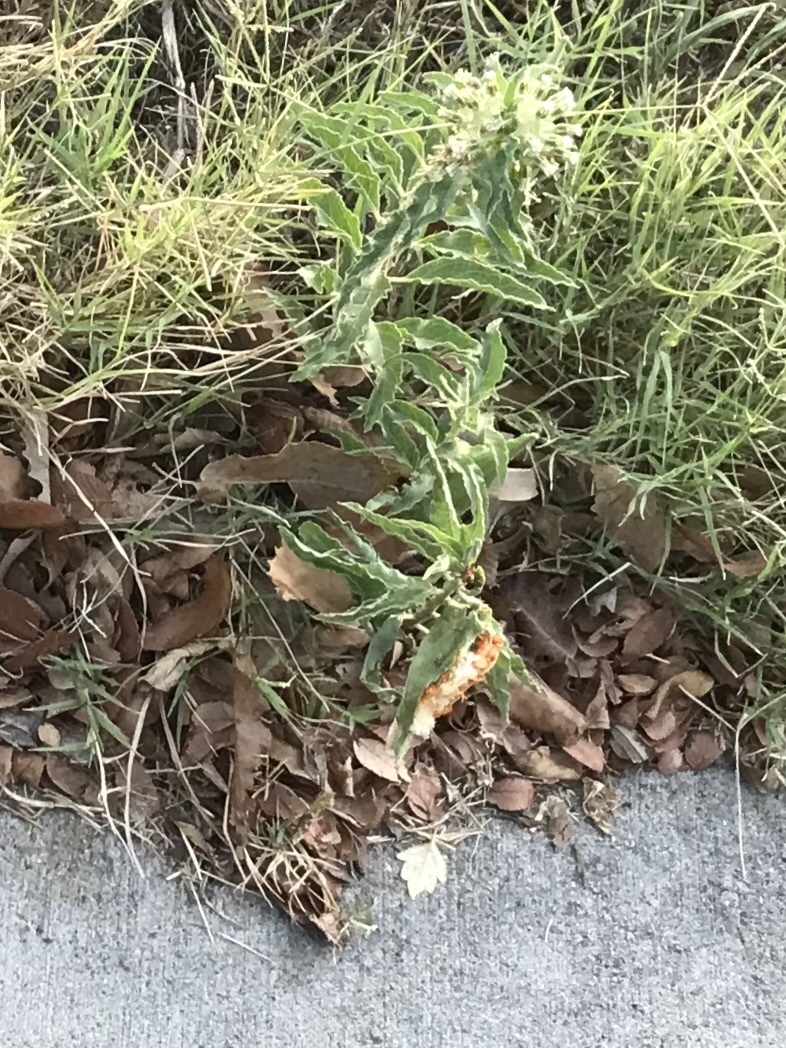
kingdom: Plantae
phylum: Tracheophyta
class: Magnoliopsida
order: Gentianales
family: Apocynaceae
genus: Asclepias
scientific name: Asclepias oenotheroides
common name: Zizotes milkweed
